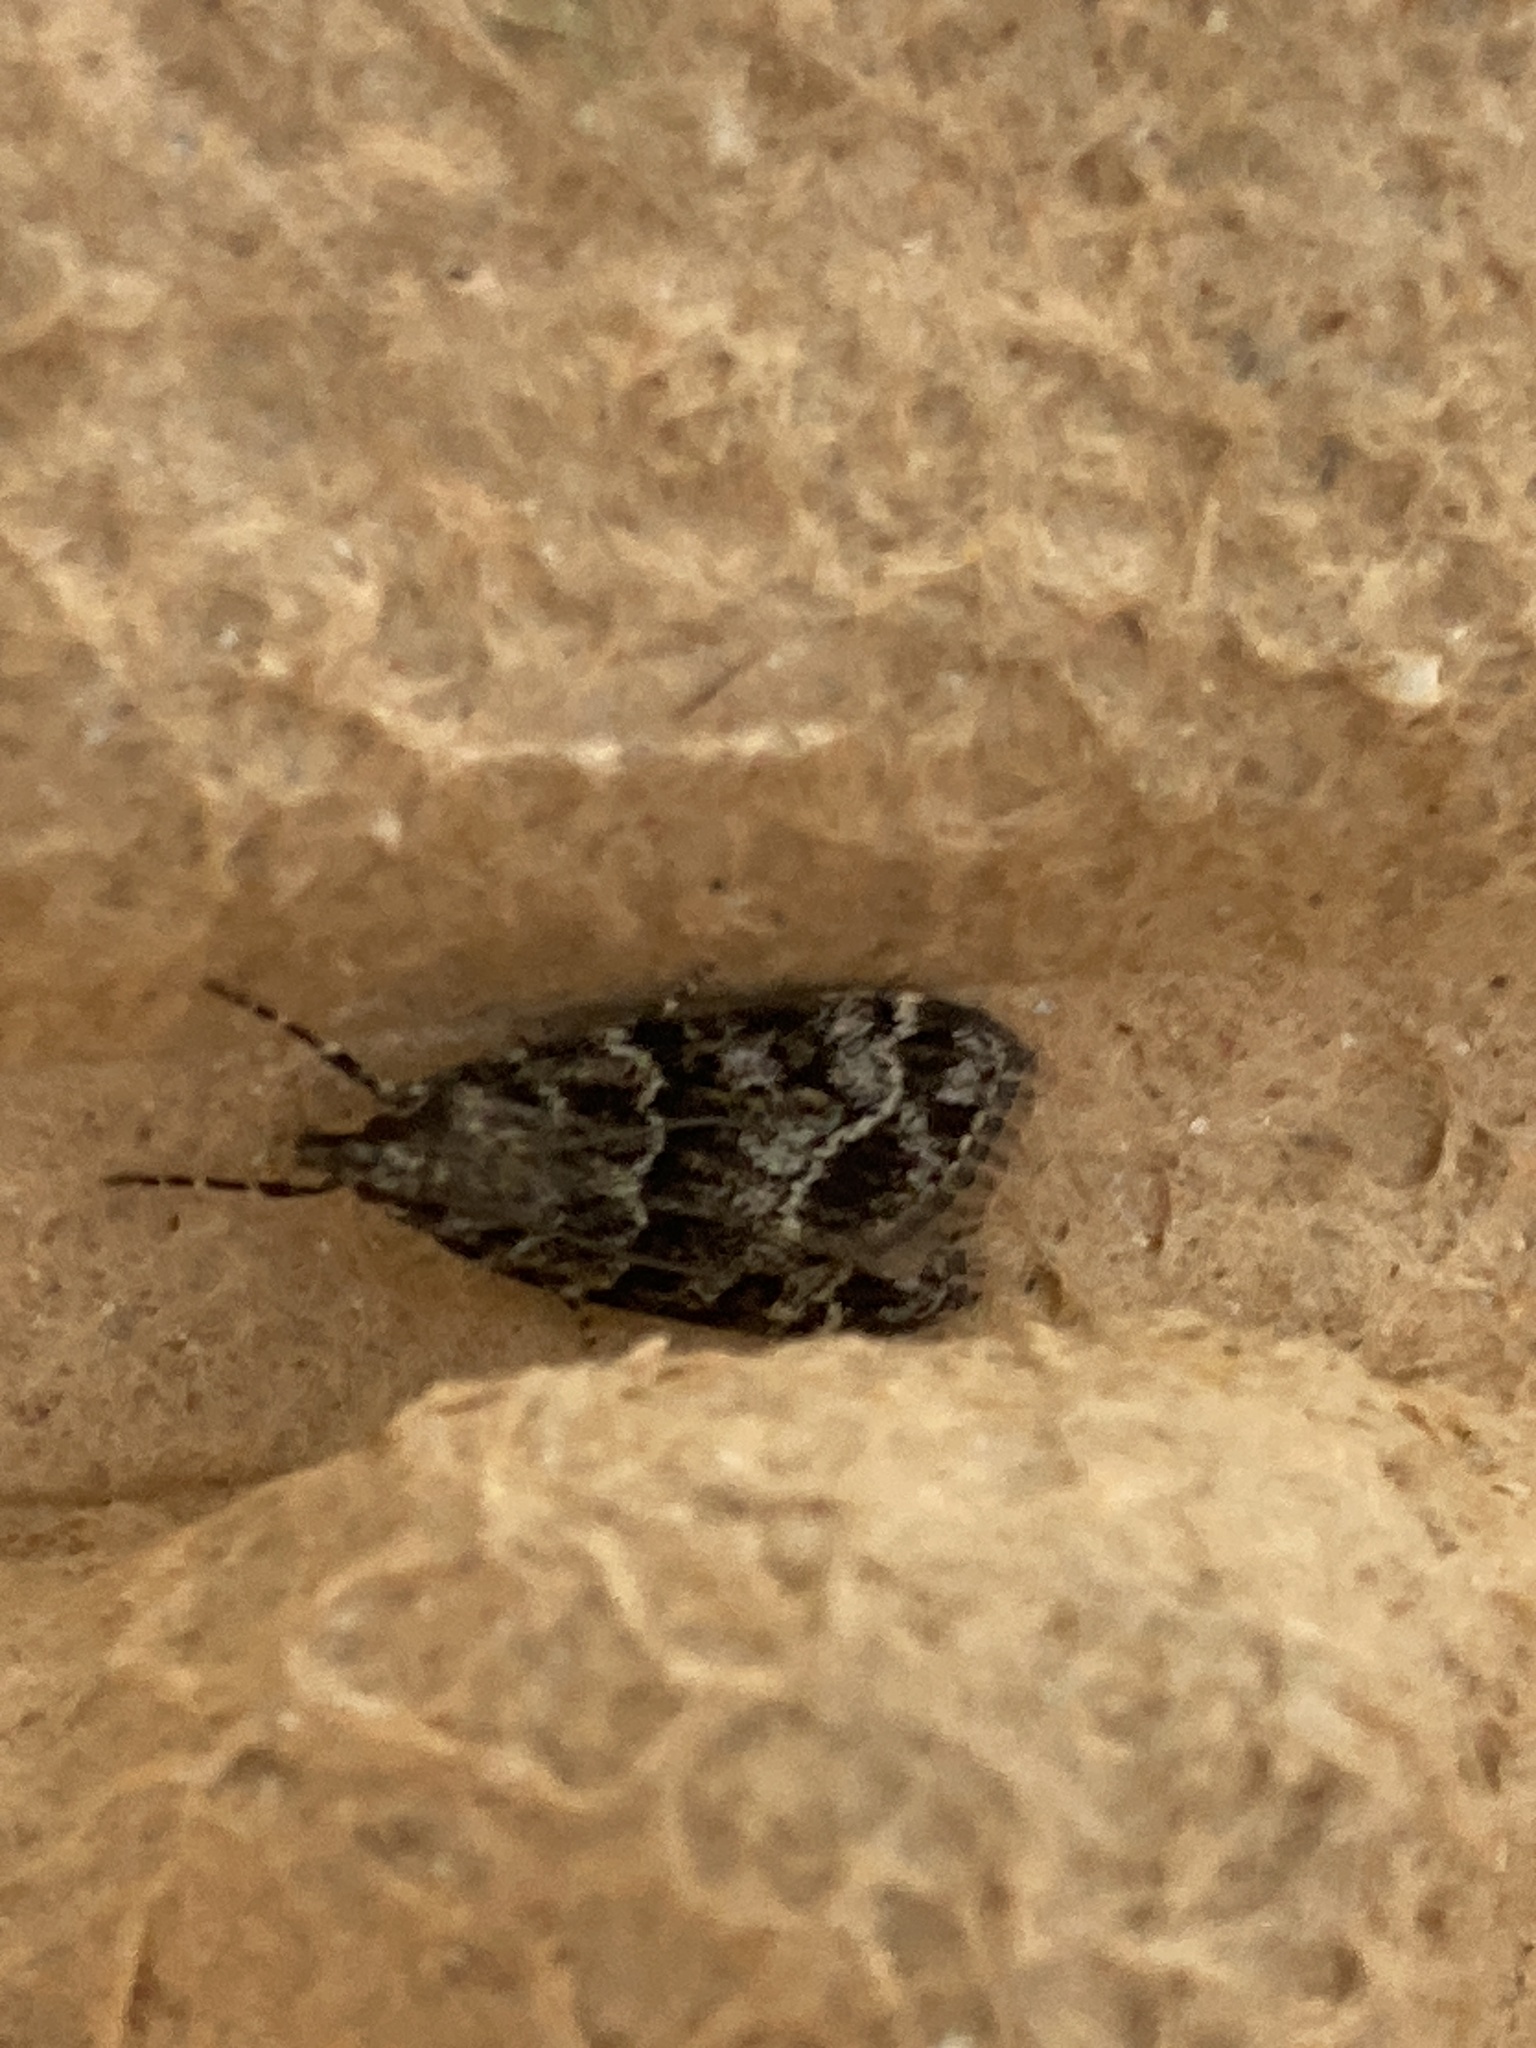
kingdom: Animalia
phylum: Arthropoda
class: Insecta
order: Lepidoptera
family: Crambidae
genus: Eudonia
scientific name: Eudonia mercurella
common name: Small grey
